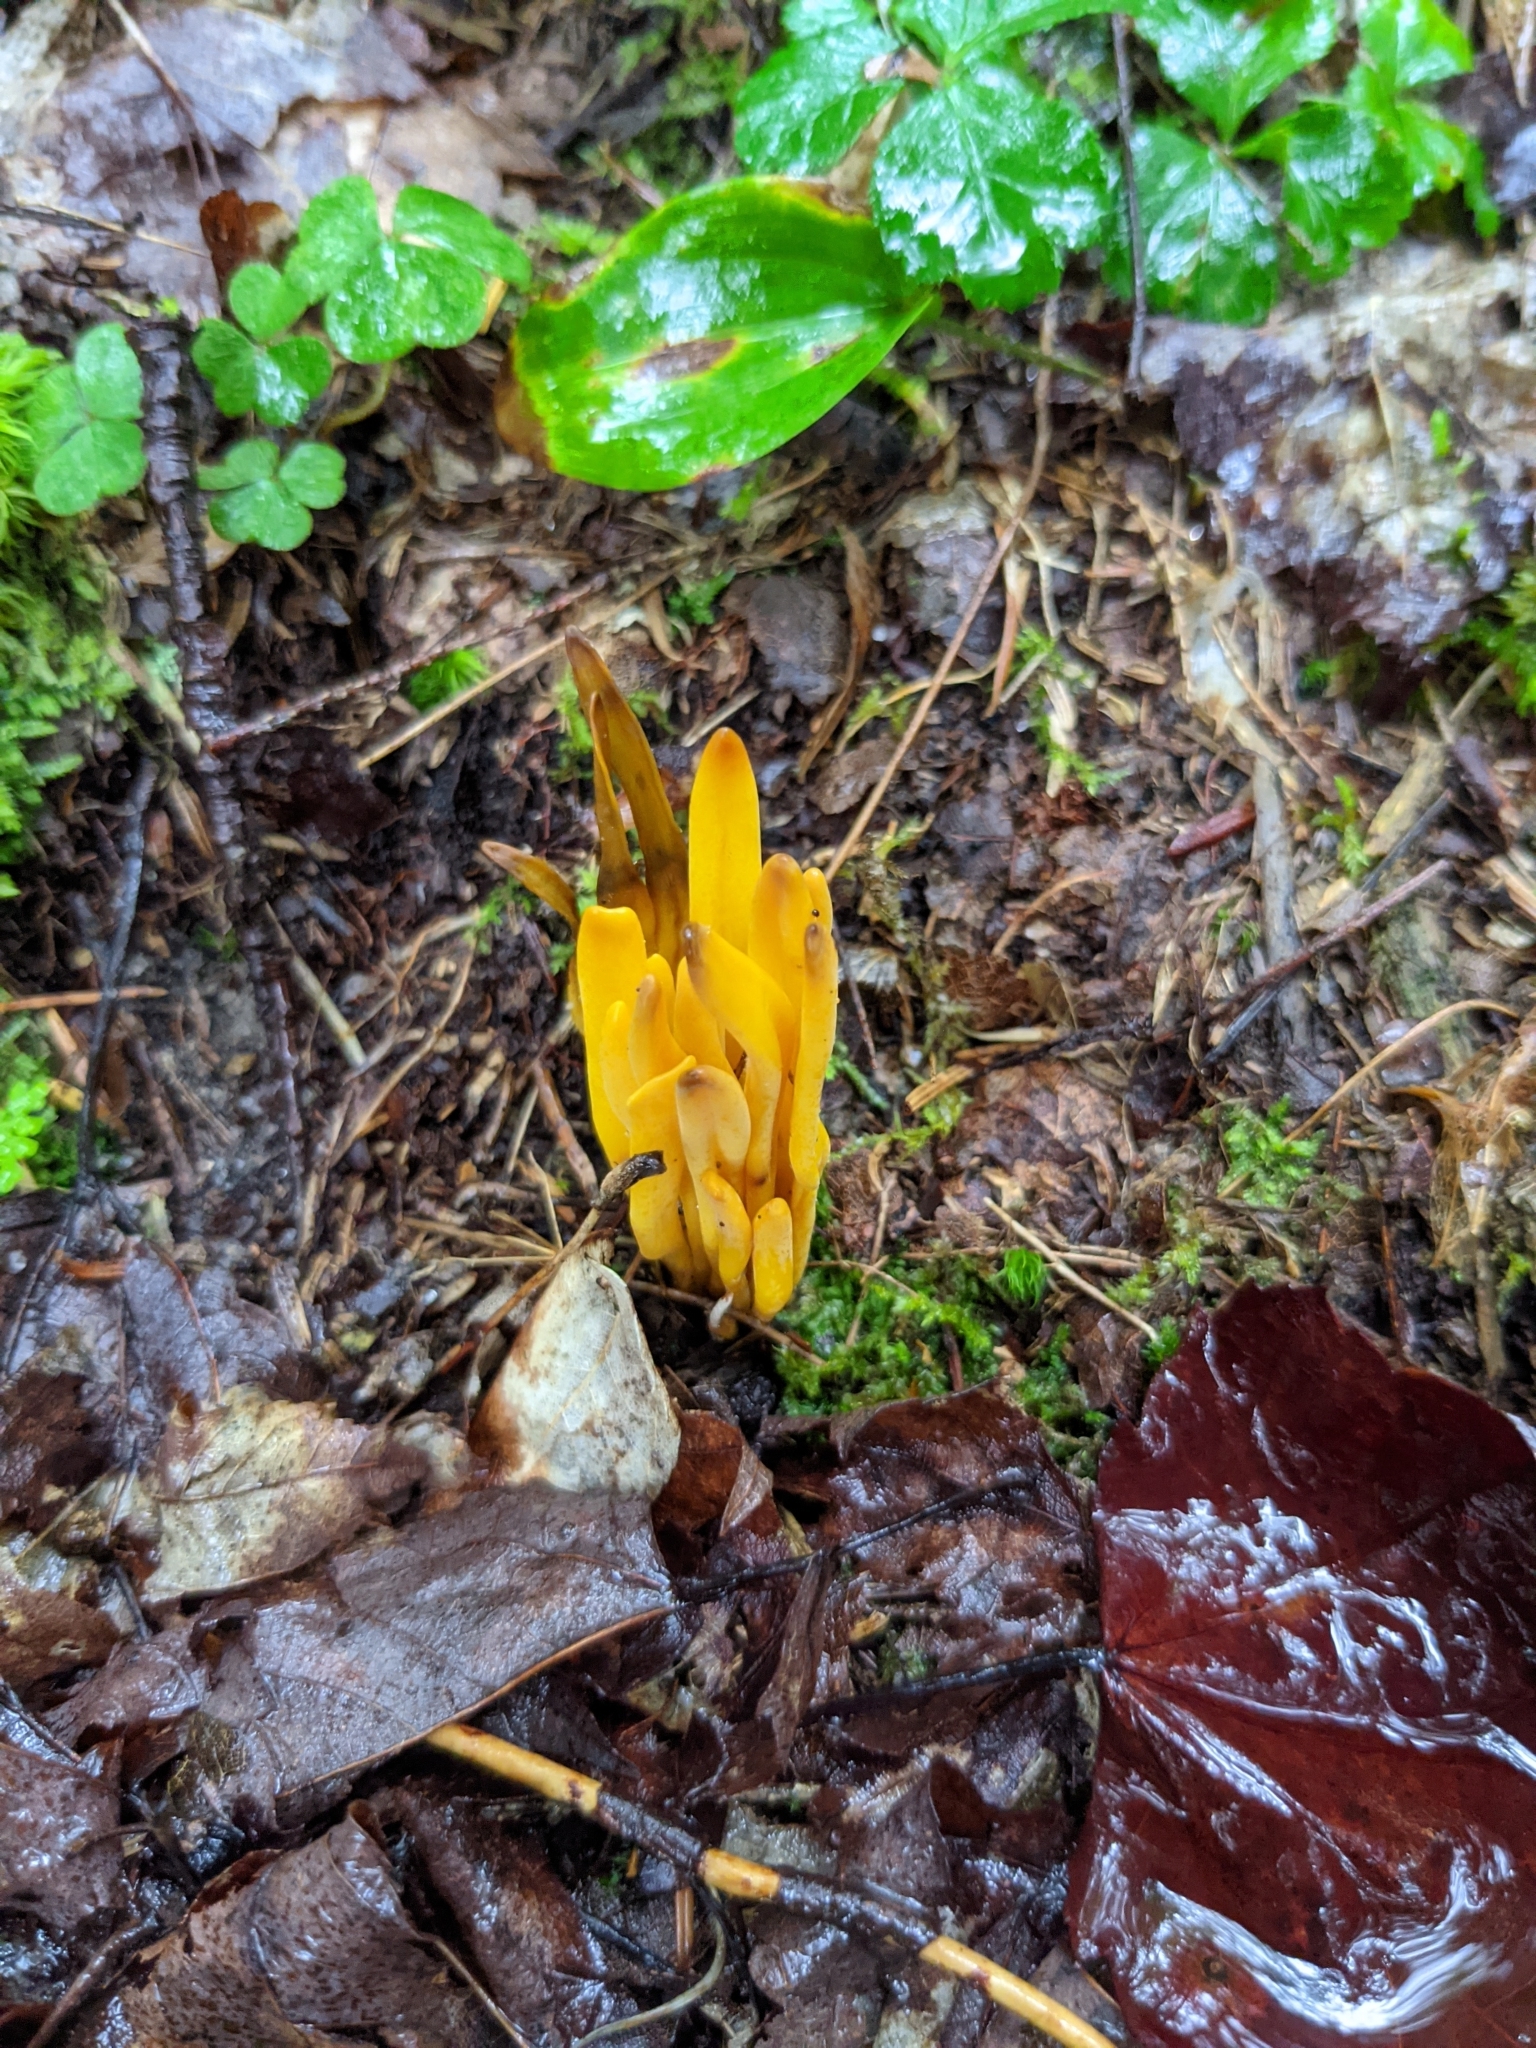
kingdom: Fungi
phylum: Basidiomycota
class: Agaricomycetes
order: Agaricales
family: Clavariaceae
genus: Clavulinopsis
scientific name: Clavulinopsis fusiformis
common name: Golden spindles
